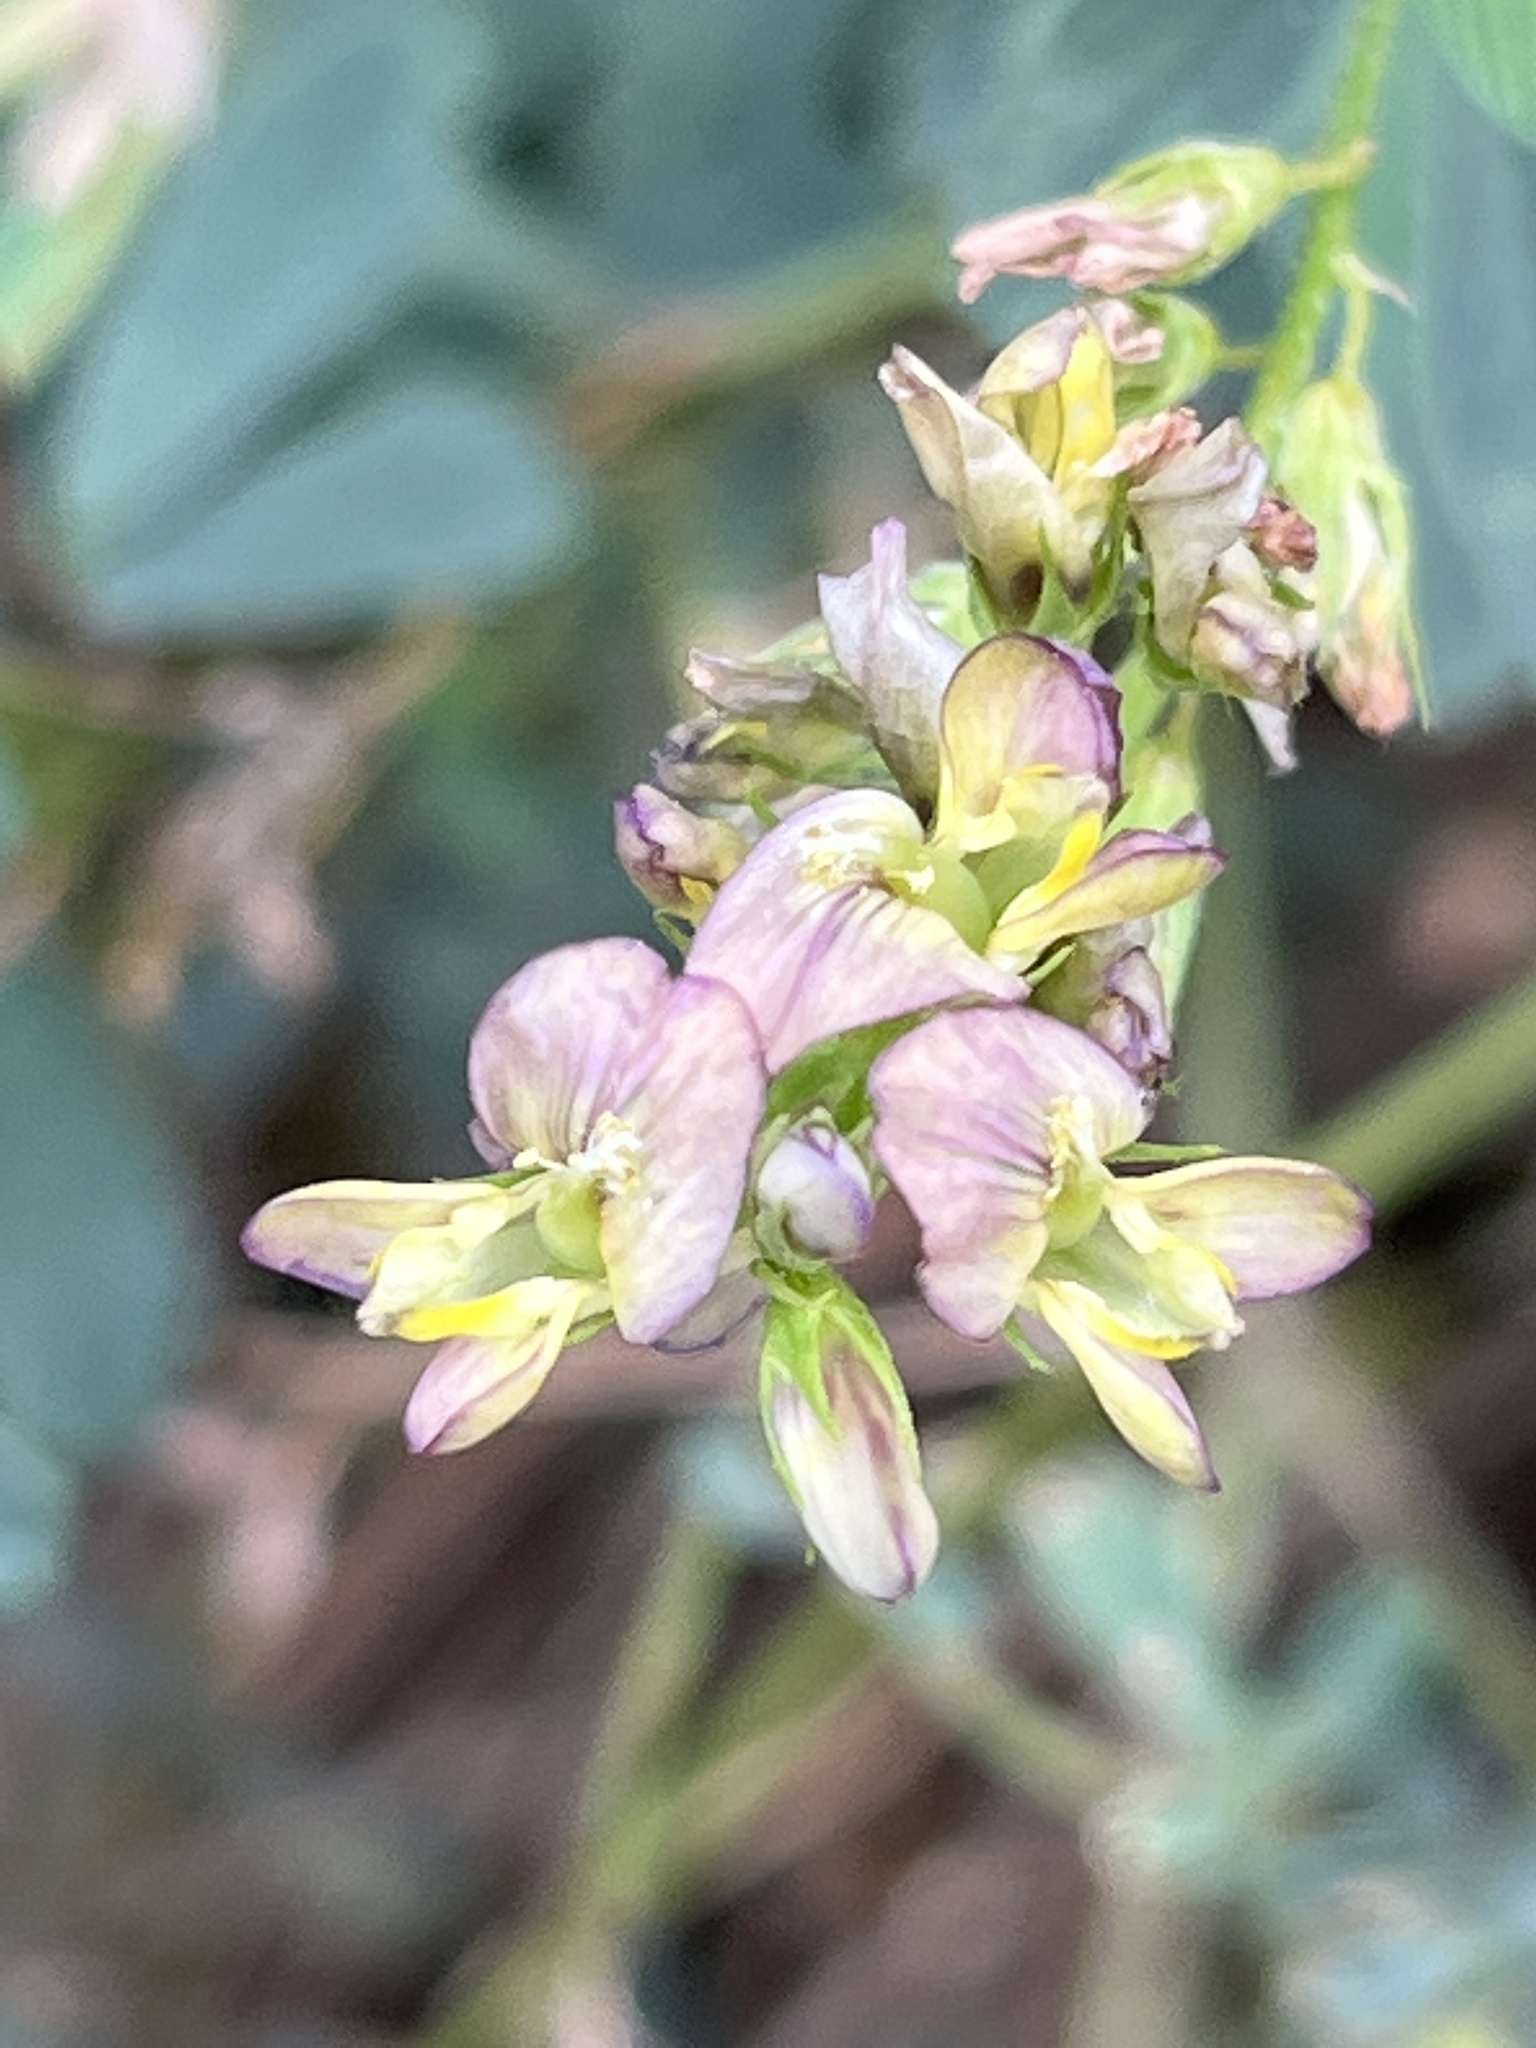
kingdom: Plantae
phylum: Tracheophyta
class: Magnoliopsida
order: Fabales
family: Fabaceae
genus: Medicago
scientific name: Medicago varia
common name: Sand lucerne
